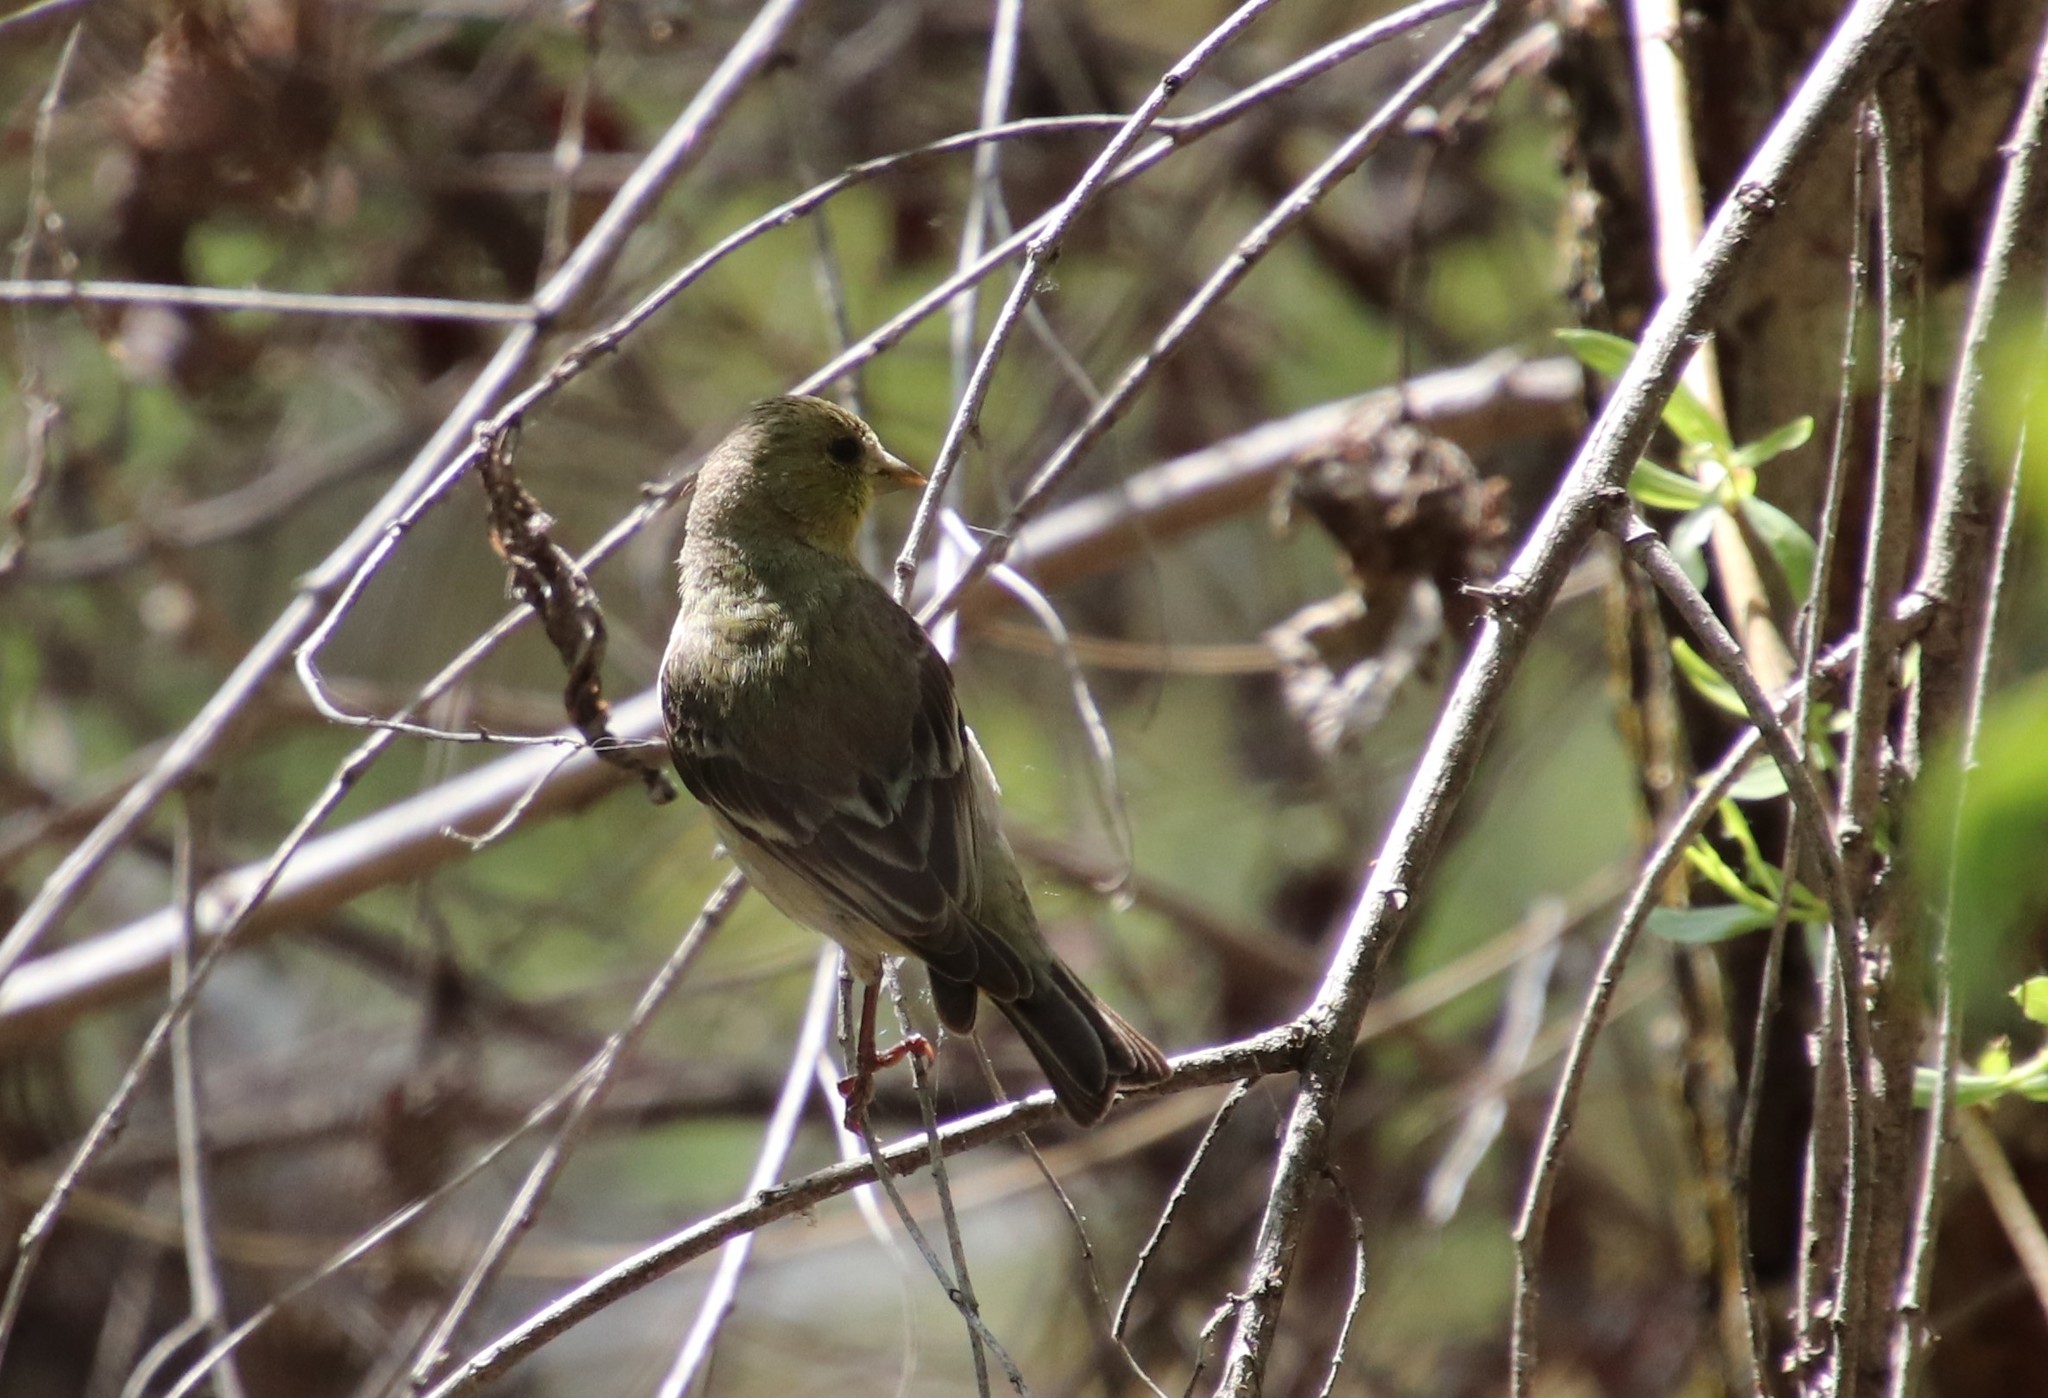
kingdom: Animalia
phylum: Chordata
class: Aves
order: Passeriformes
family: Fringillidae
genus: Spinus
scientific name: Spinus psaltria
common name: Lesser goldfinch
